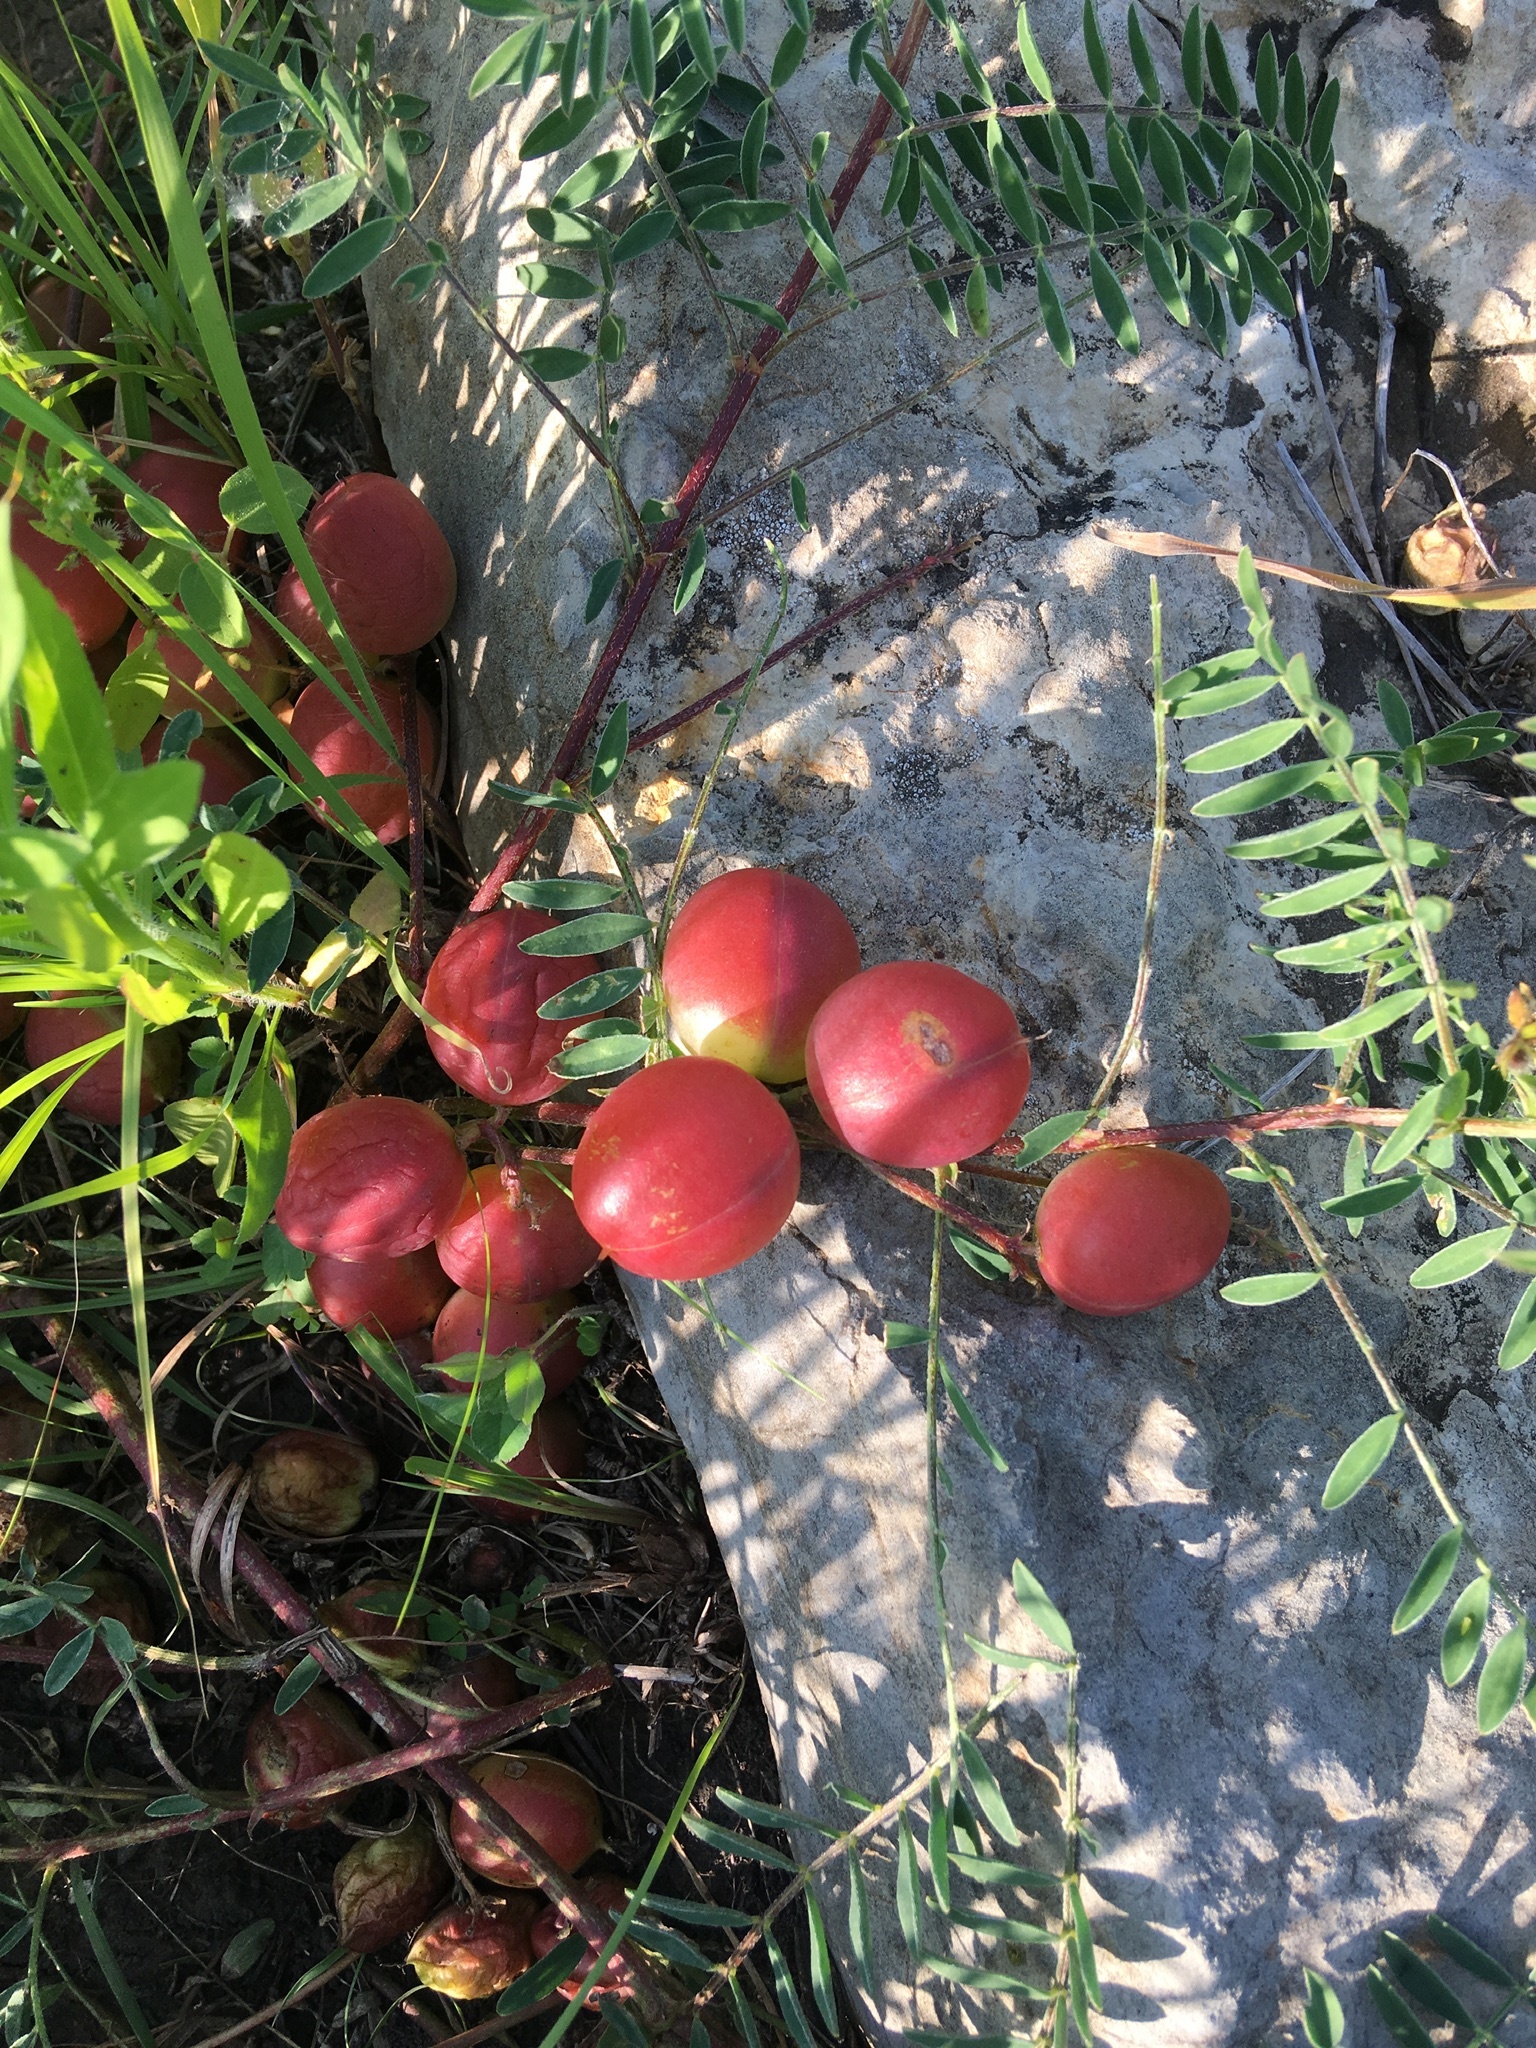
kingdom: Plantae
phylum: Tracheophyta
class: Magnoliopsida
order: Fabales
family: Fabaceae
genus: Astragalus
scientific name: Astragalus crassicarpus
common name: Ground-plum milk-vetch
